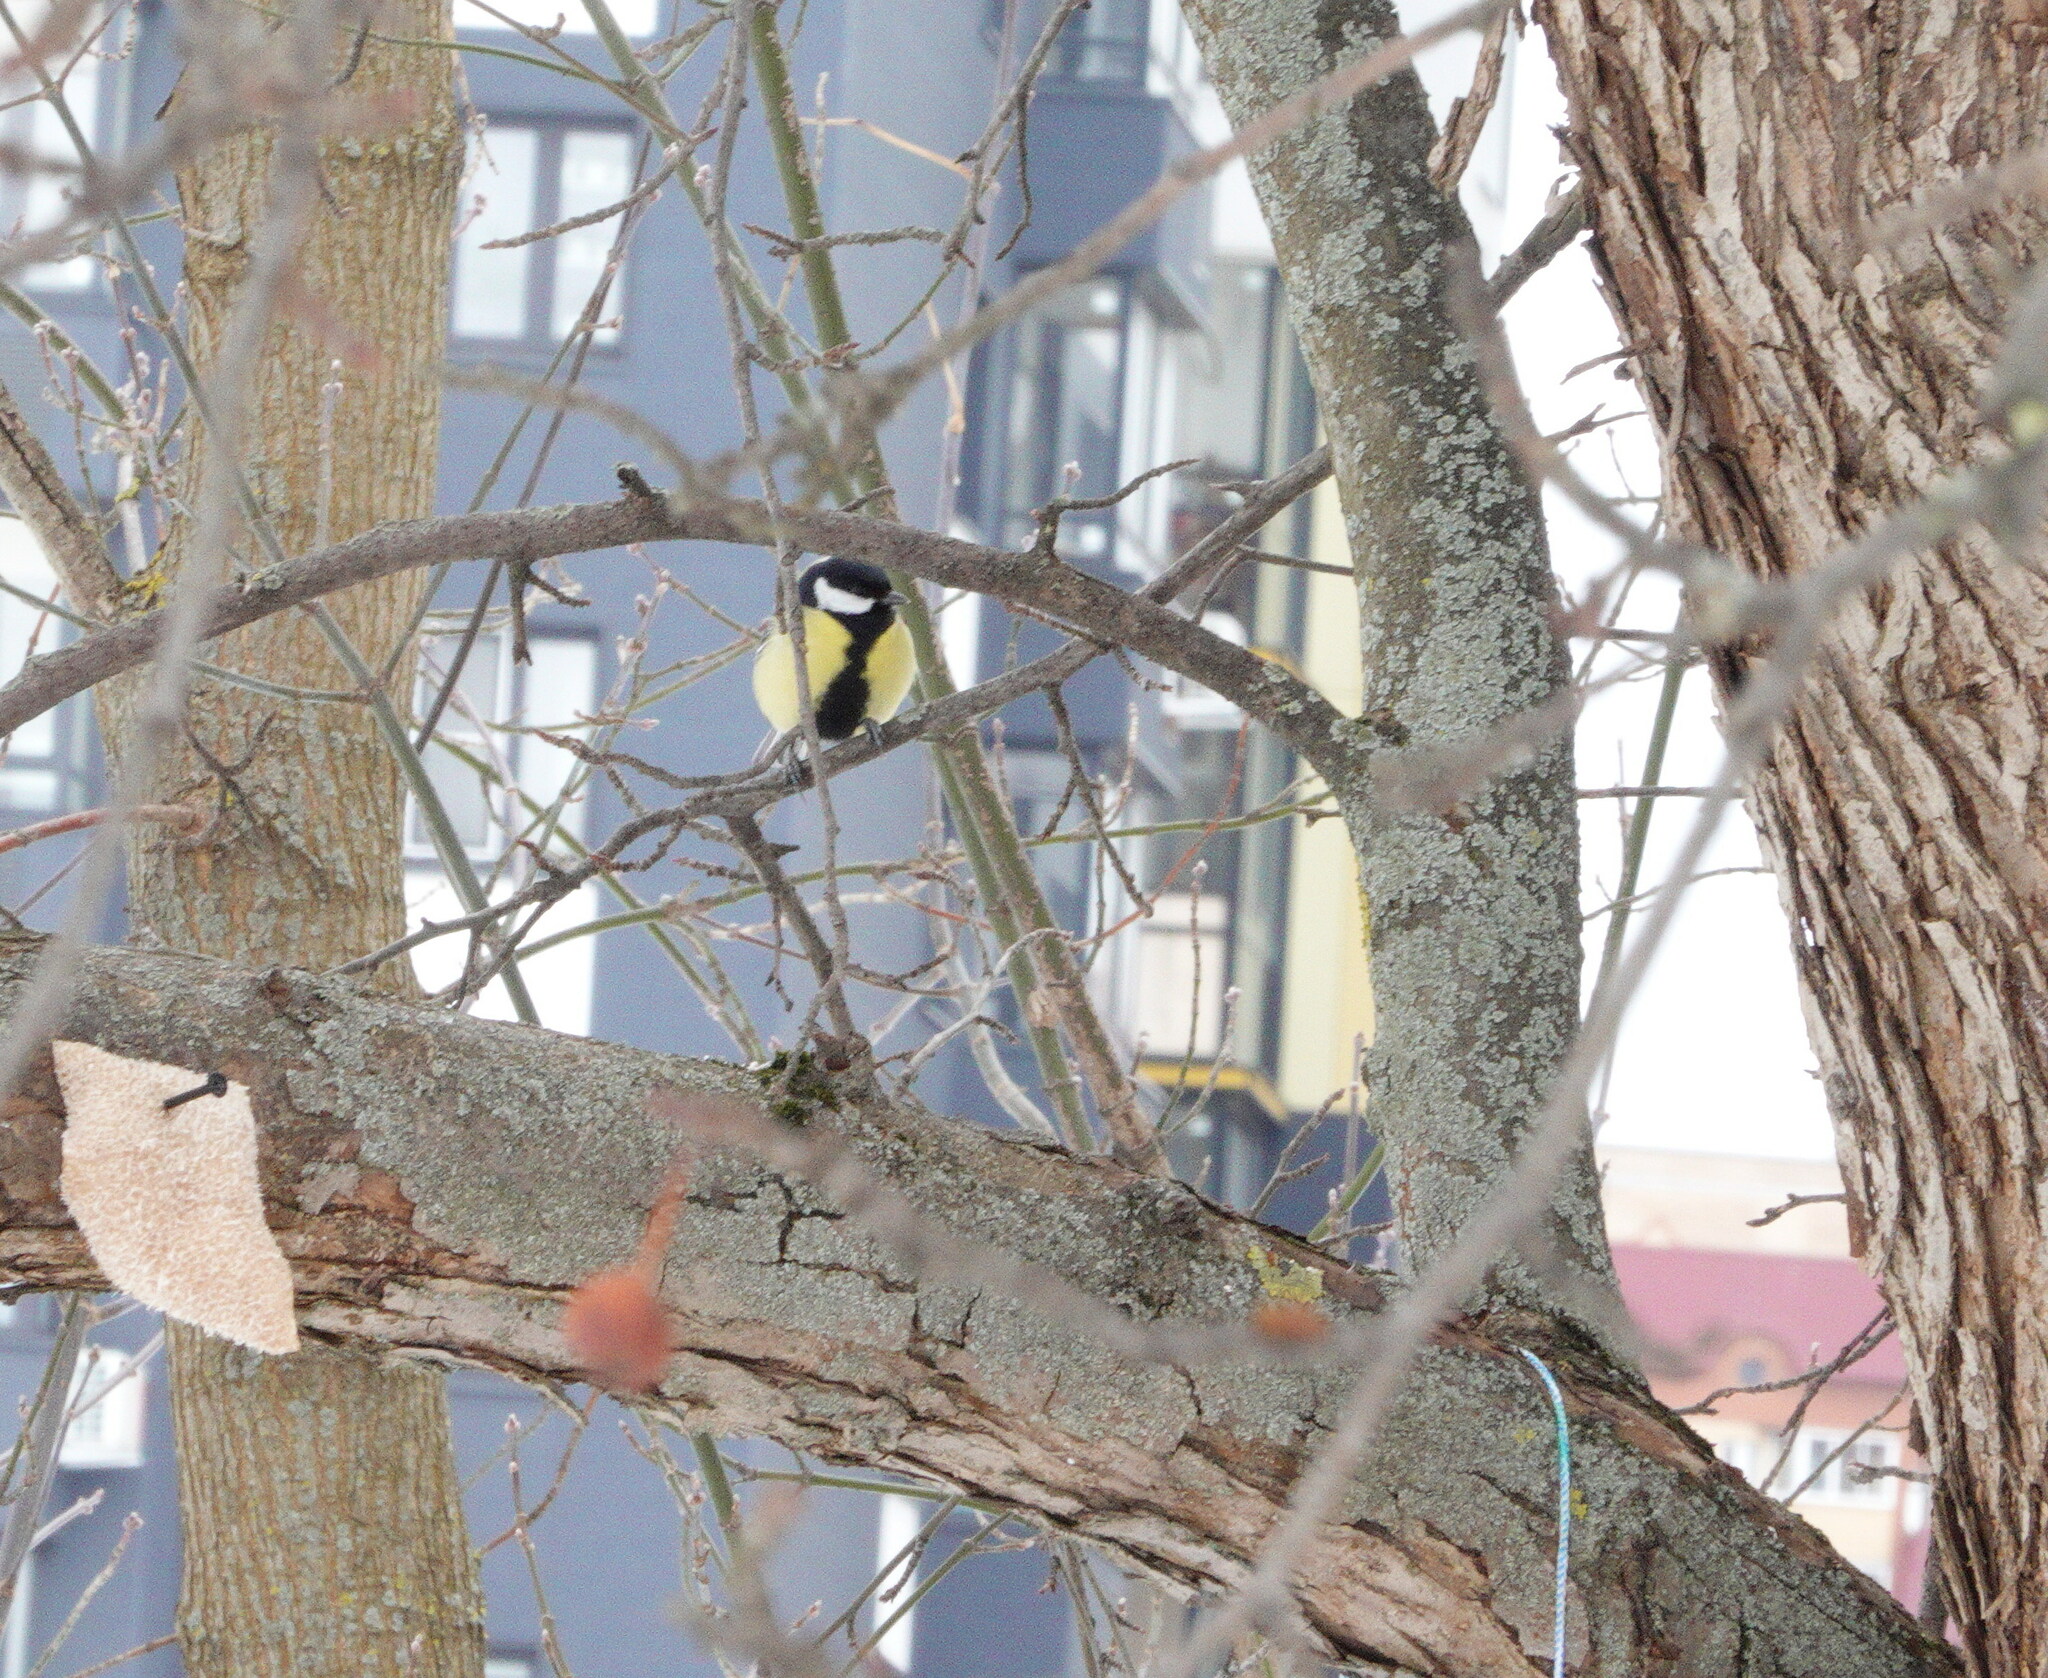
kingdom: Animalia
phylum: Chordata
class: Aves
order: Passeriformes
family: Paridae
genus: Parus
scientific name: Parus major
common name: Great tit
